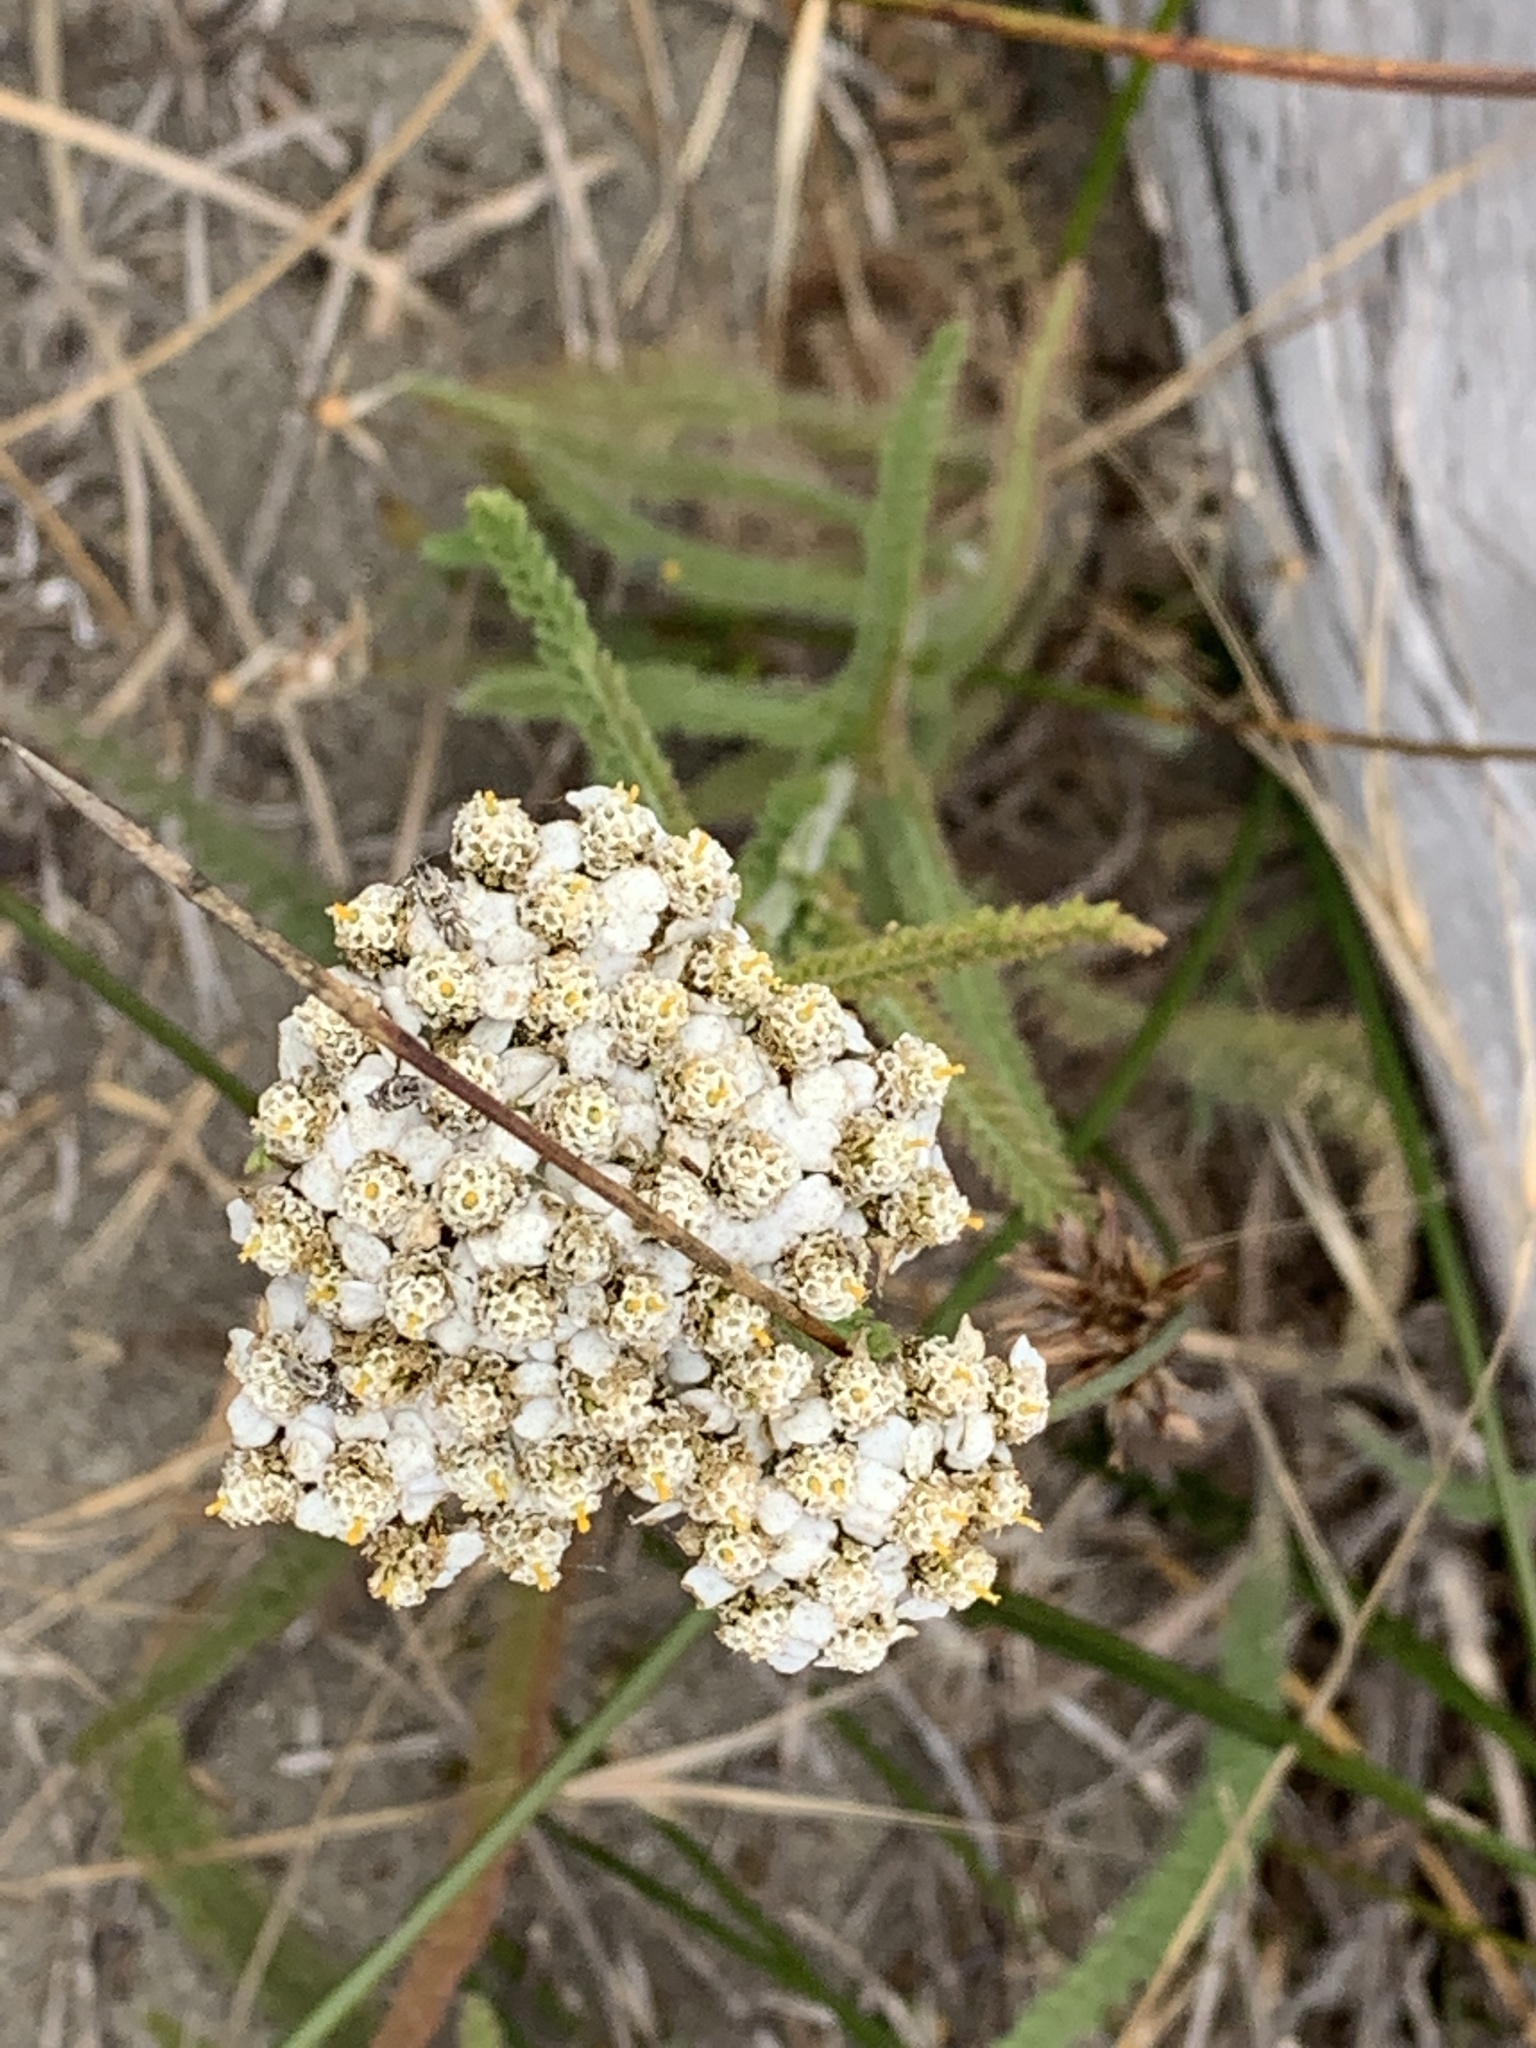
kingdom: Plantae
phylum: Tracheophyta
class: Magnoliopsida
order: Asterales
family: Asteraceae
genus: Achillea
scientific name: Achillea millefolium
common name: Yarrow
